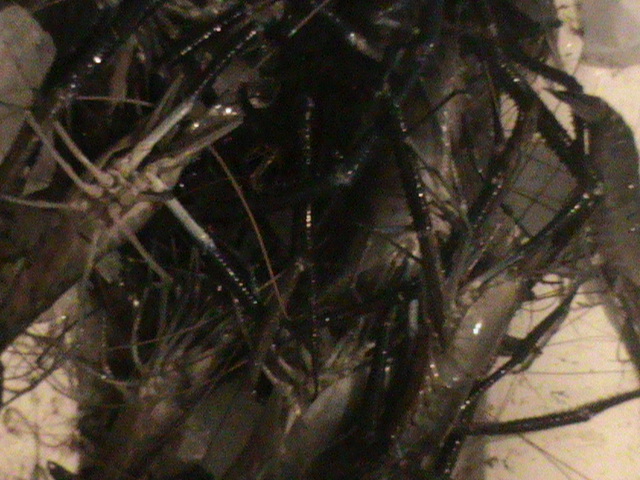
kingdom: Animalia
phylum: Arthropoda
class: Malacostraca
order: Decapoda
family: Palaemonidae
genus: Macrobrachium
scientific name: Macrobrachium rosenbergii
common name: Giant river prawn
